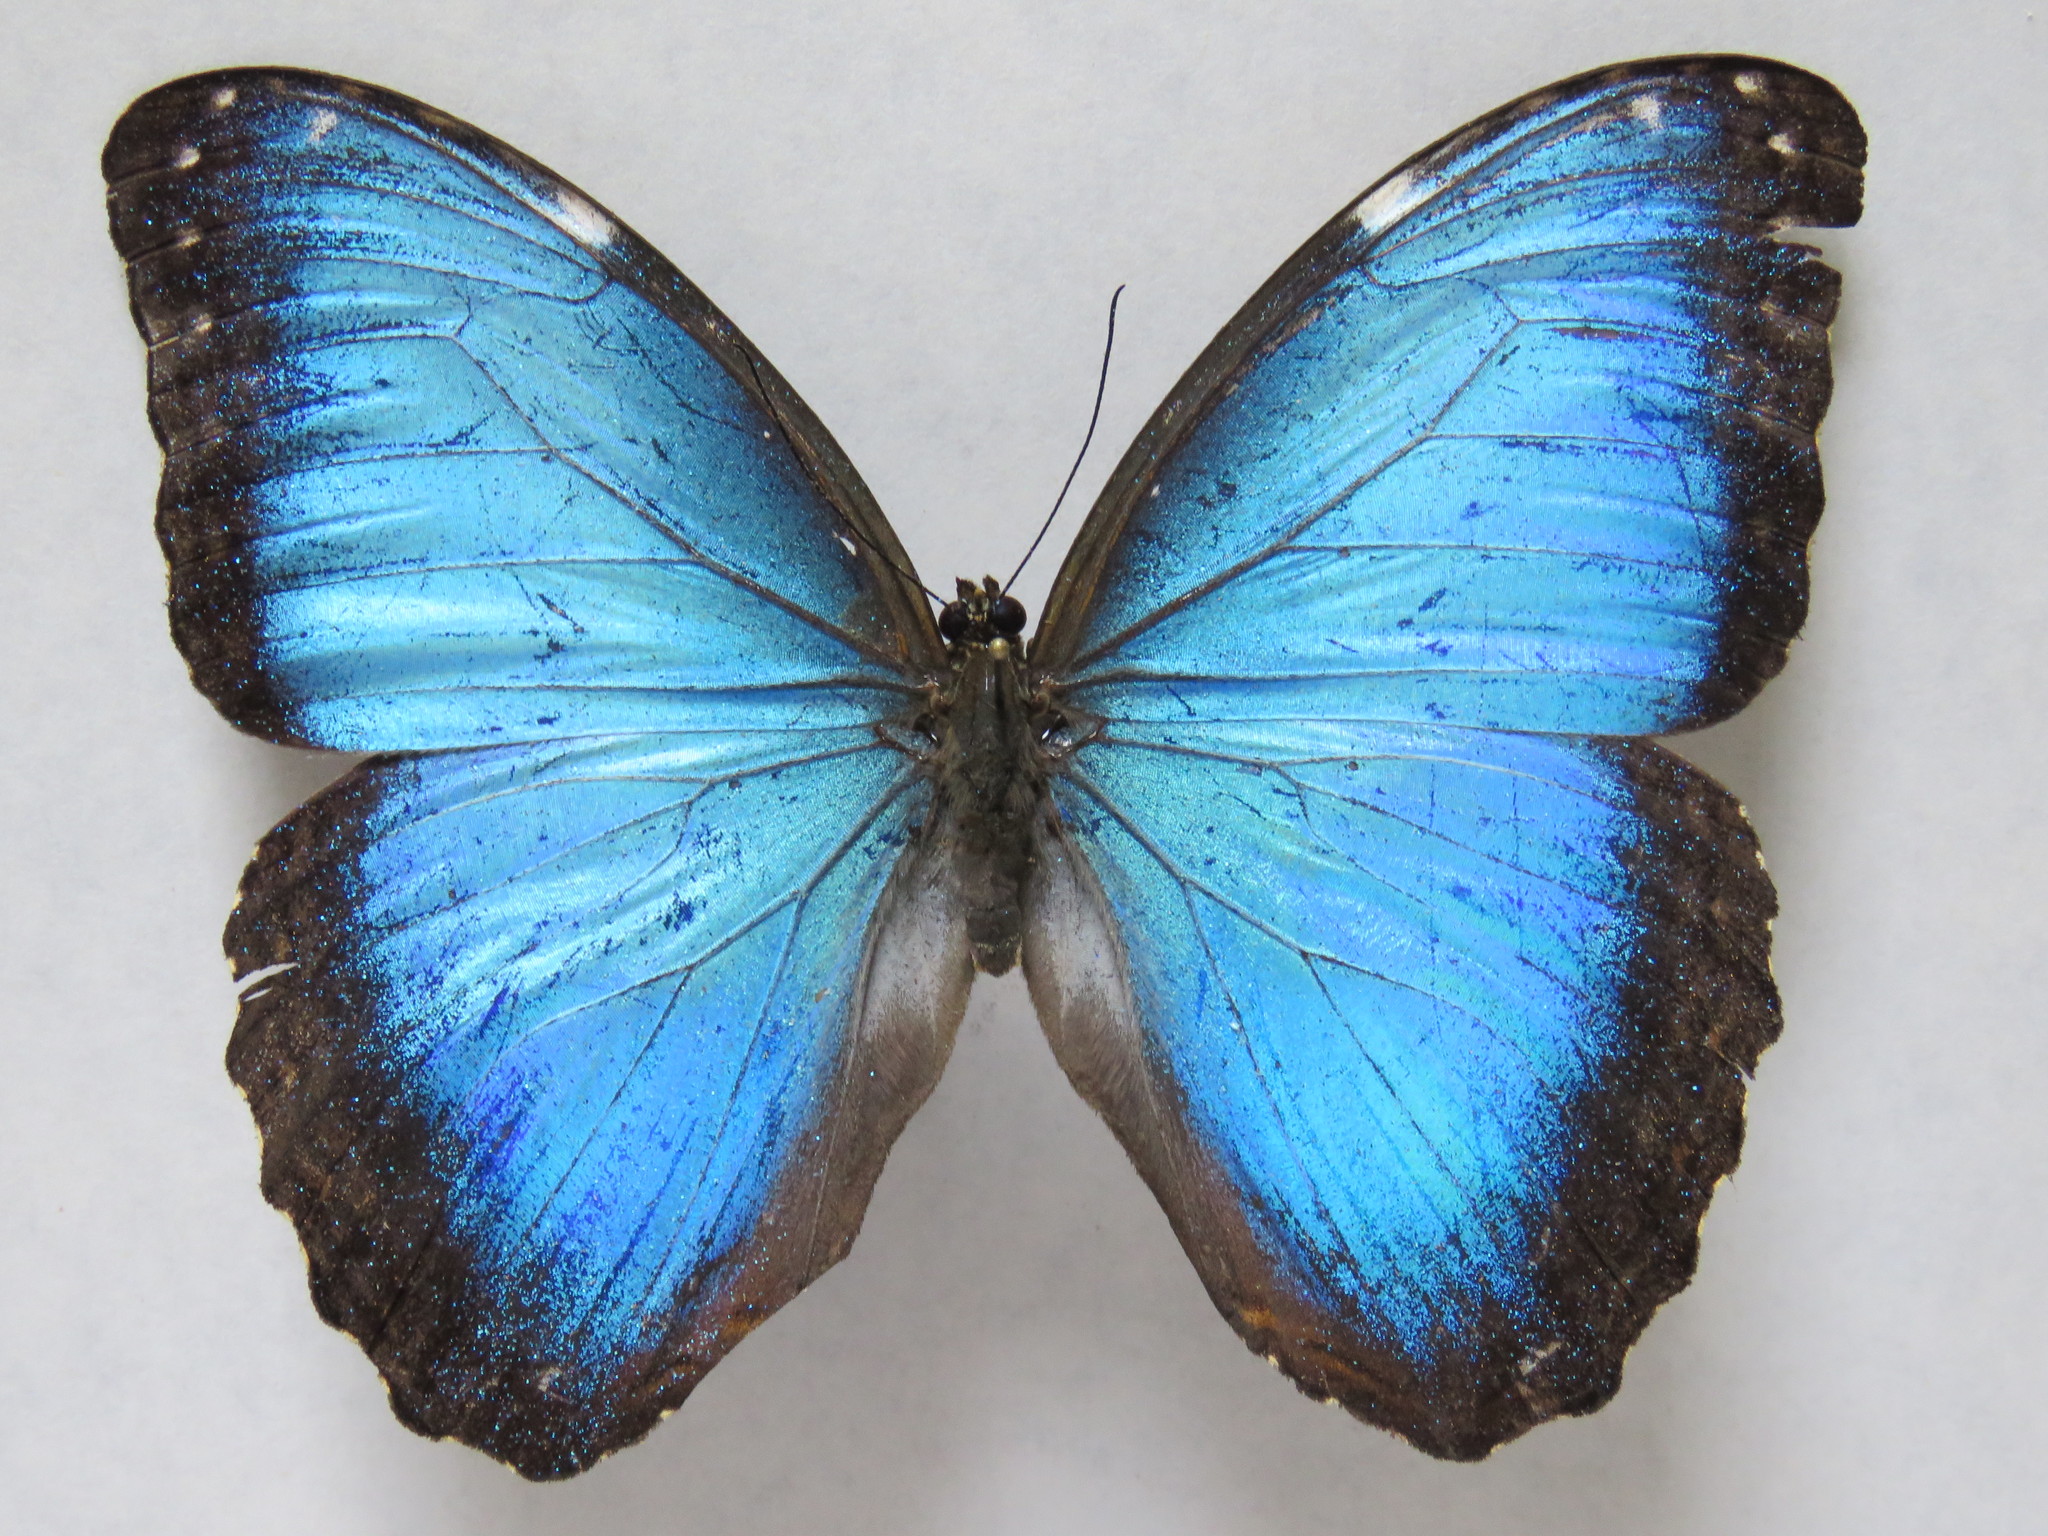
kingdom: Animalia
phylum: Arthropoda
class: Insecta
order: Lepidoptera
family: Nymphalidae
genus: Morpho
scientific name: Morpho helenor
